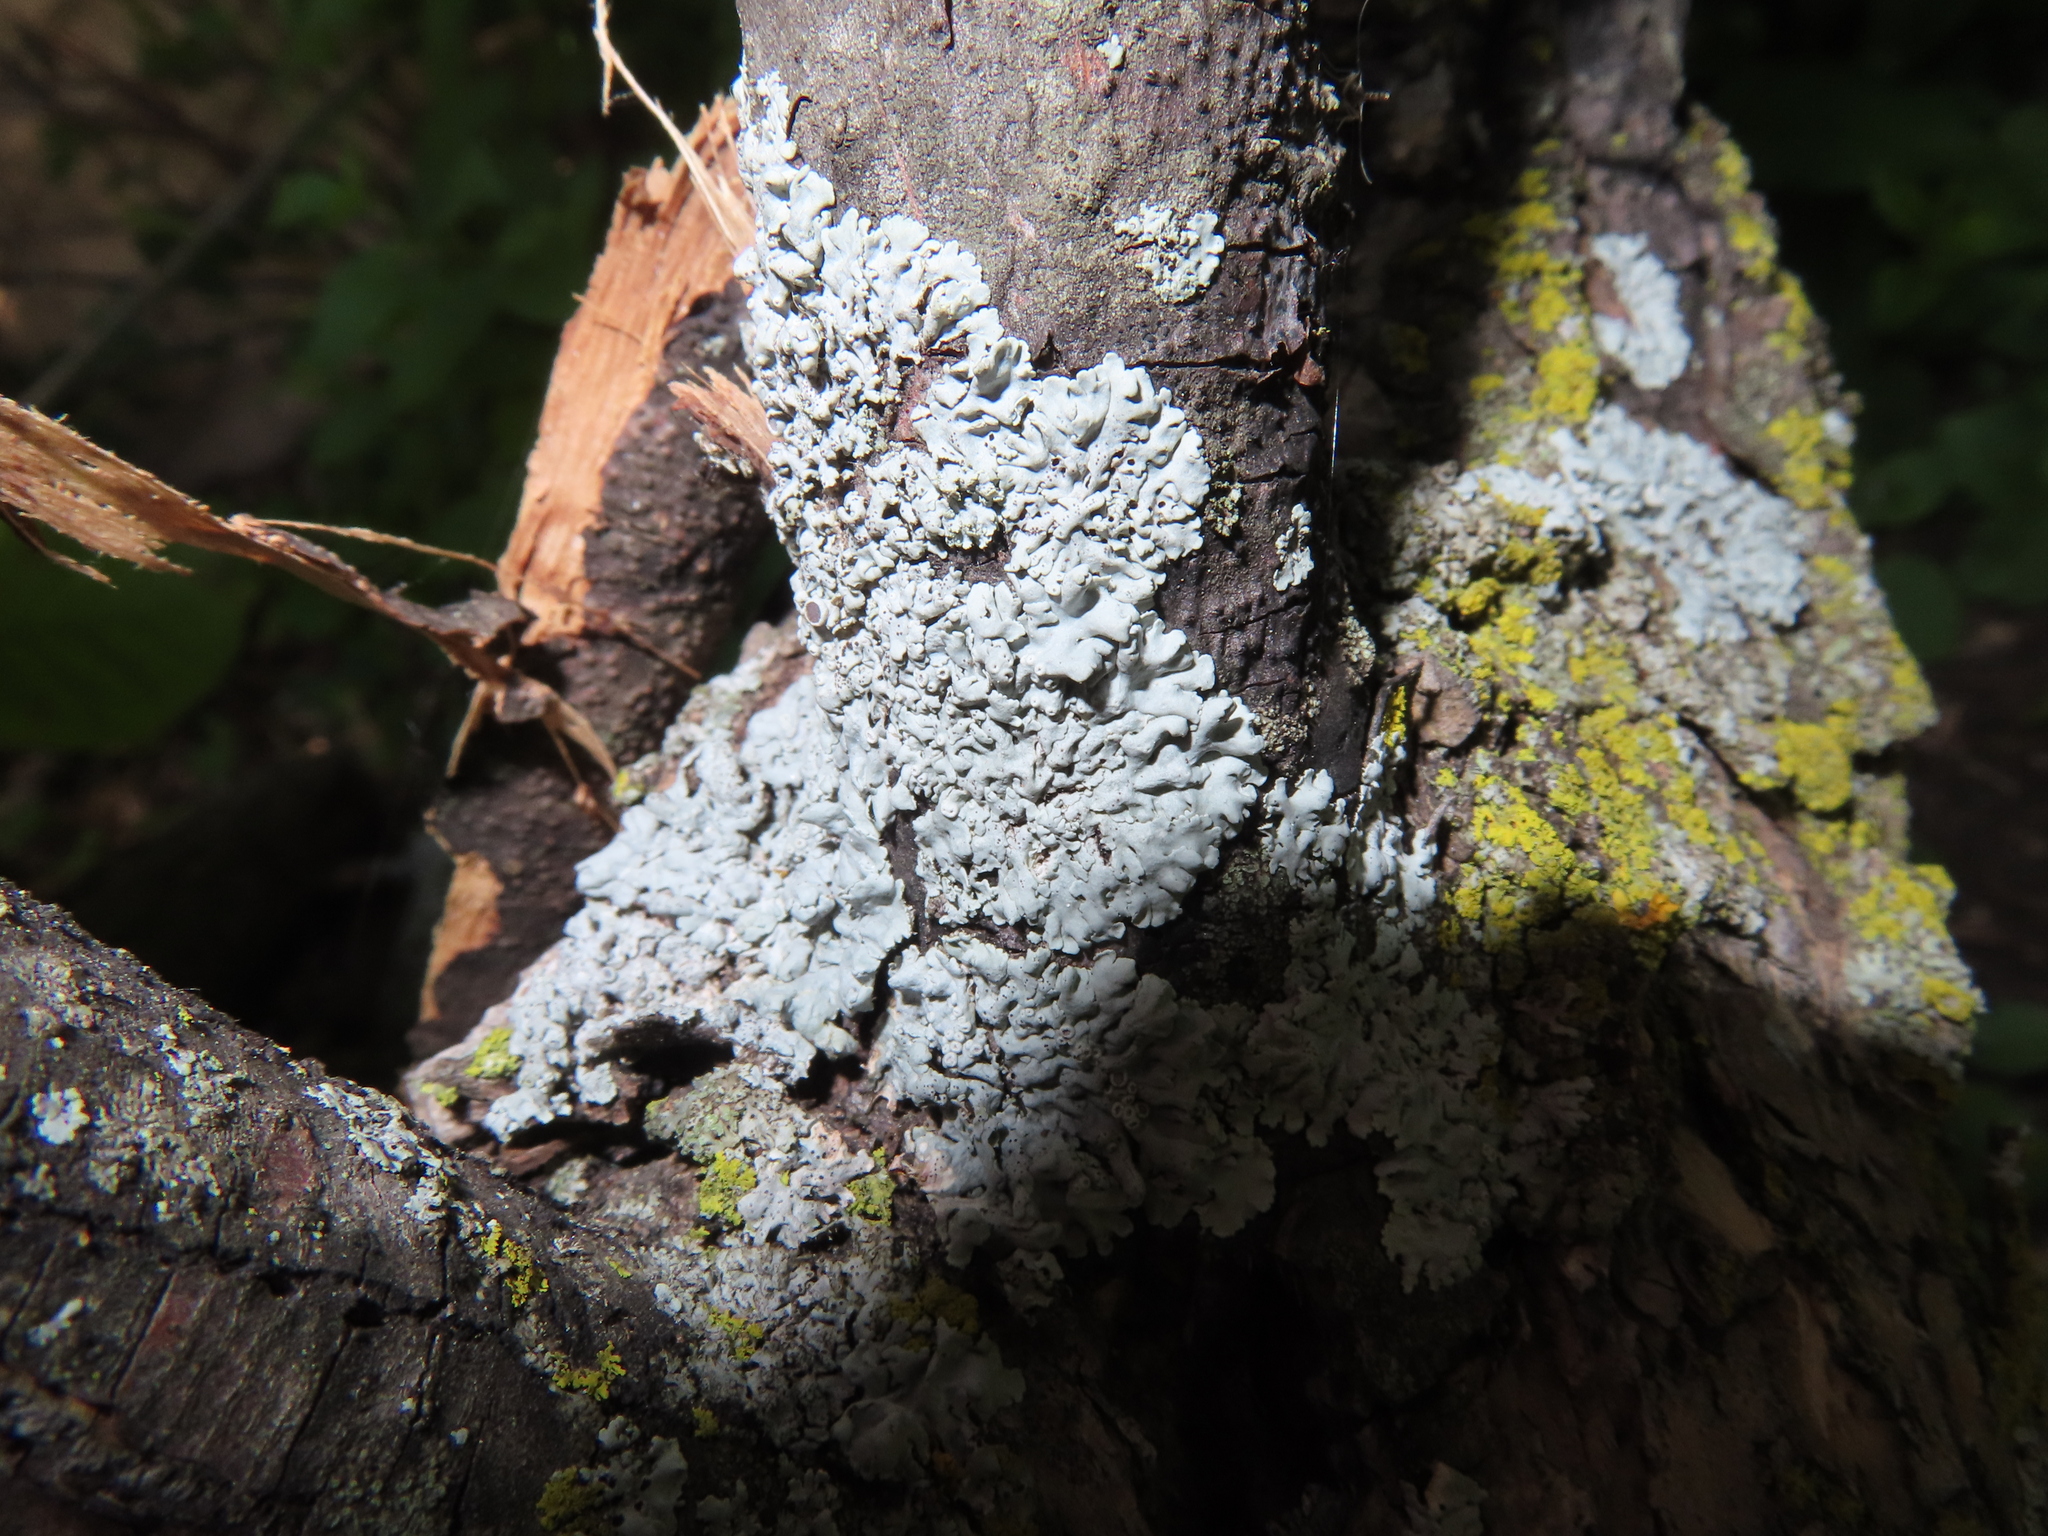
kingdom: Fungi
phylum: Ascomycota
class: Lecanoromycetes
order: Caliciales
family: Physciaceae
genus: Physcia
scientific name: Physcia
